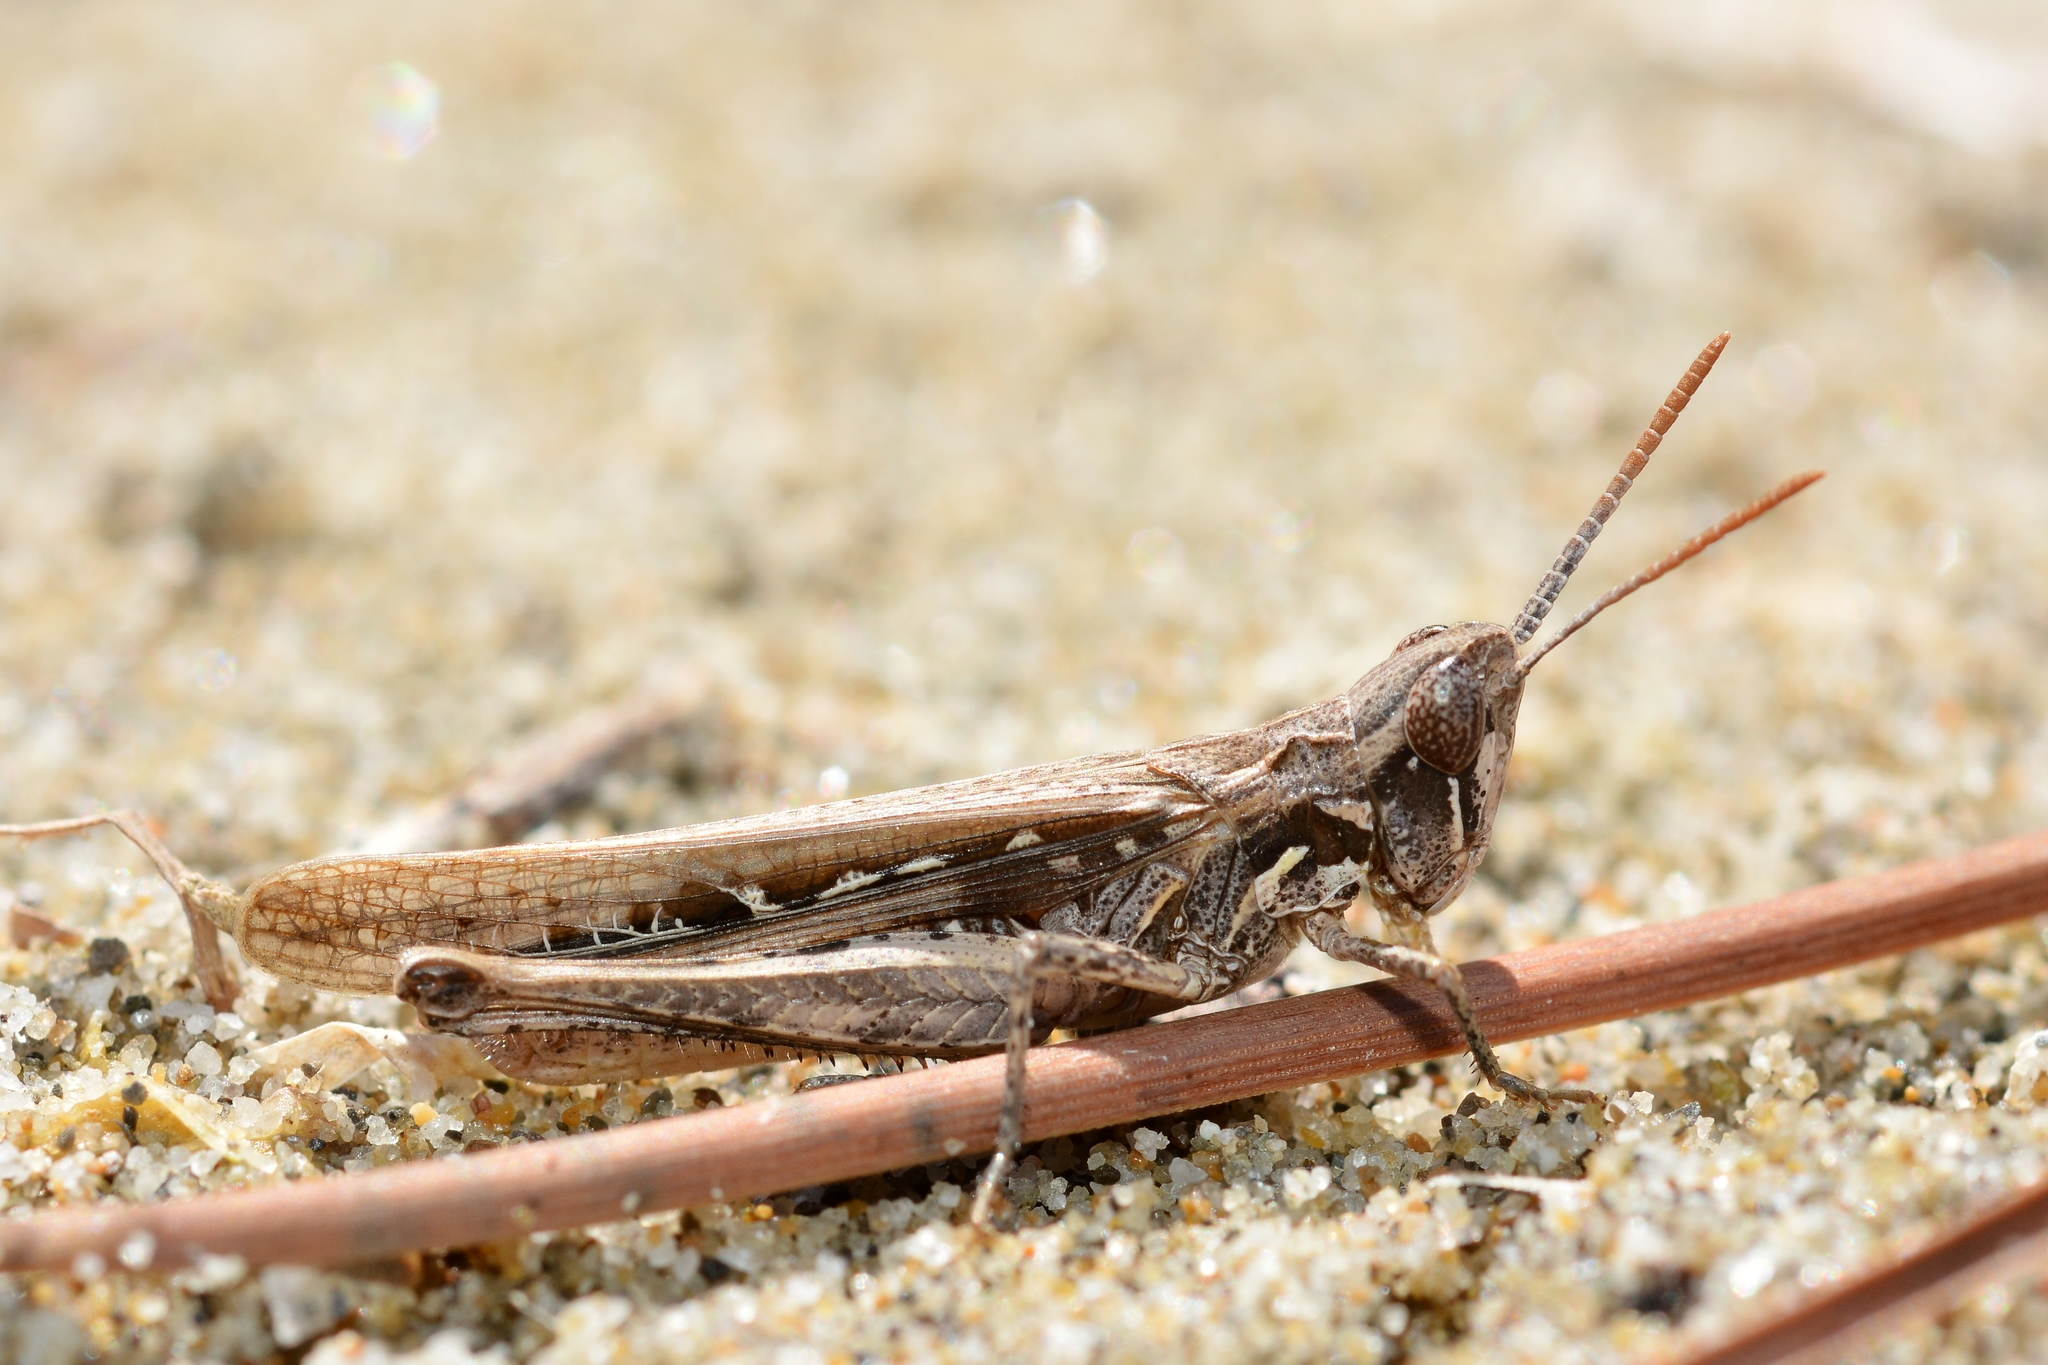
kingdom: Animalia
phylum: Arthropoda
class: Insecta
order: Orthoptera
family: Acrididae
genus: Calephorus
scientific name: Calephorus compressicornis
